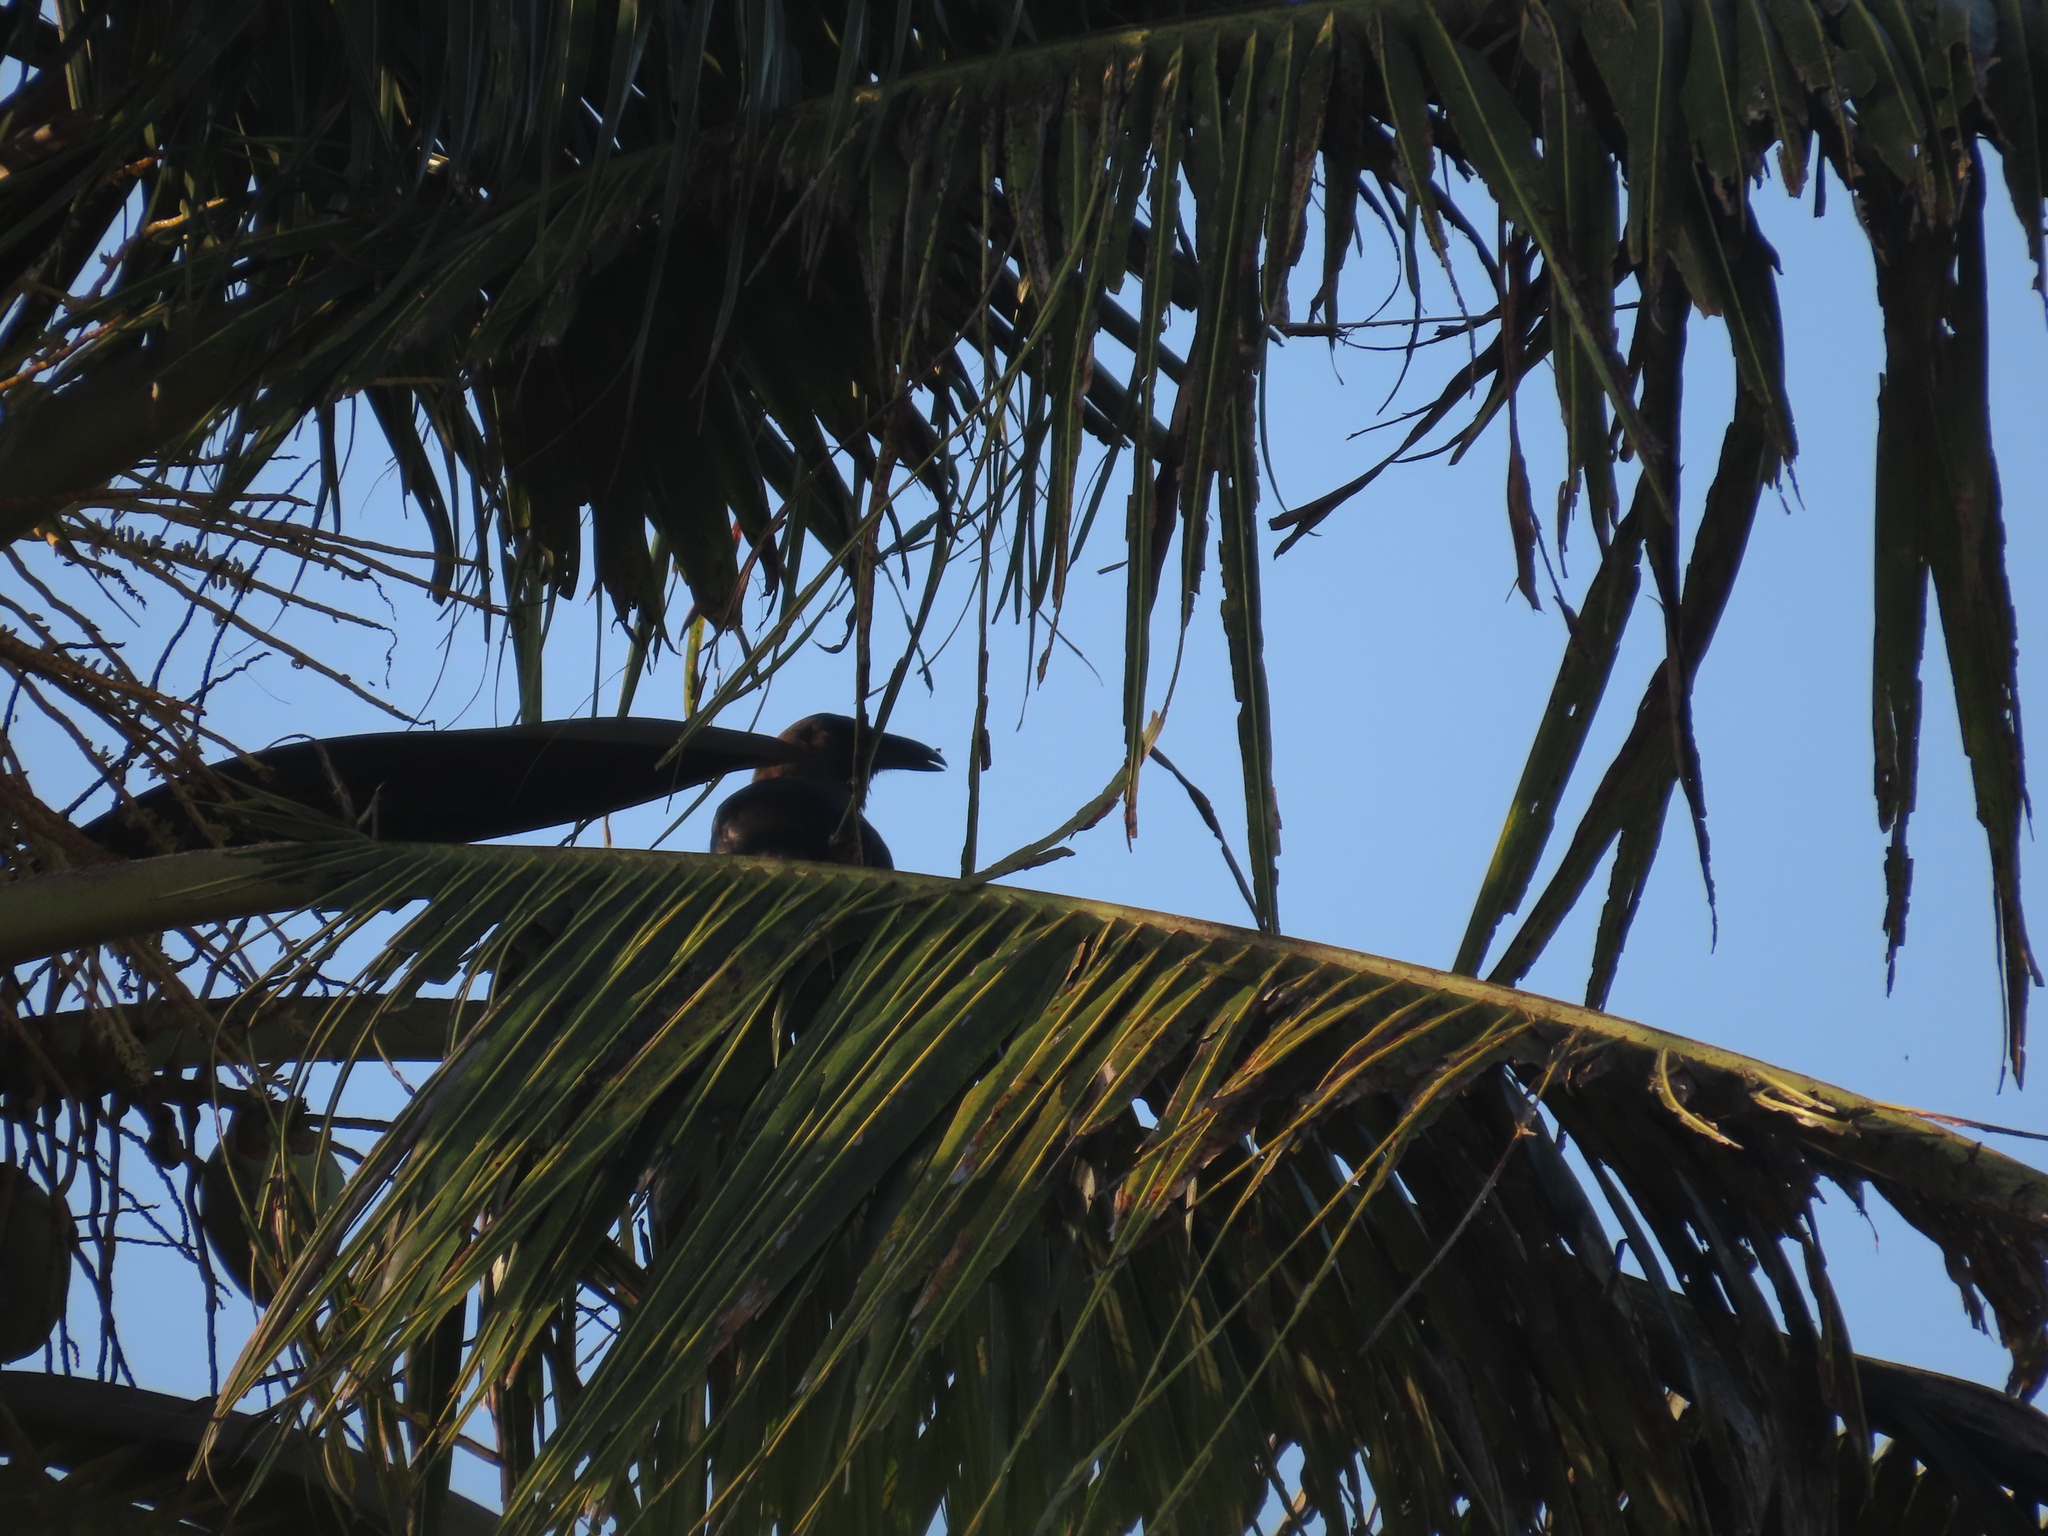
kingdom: Animalia
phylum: Chordata
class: Aves
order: Passeriformes
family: Corvidae
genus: Corvus
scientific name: Corvus splendens
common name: House crow
